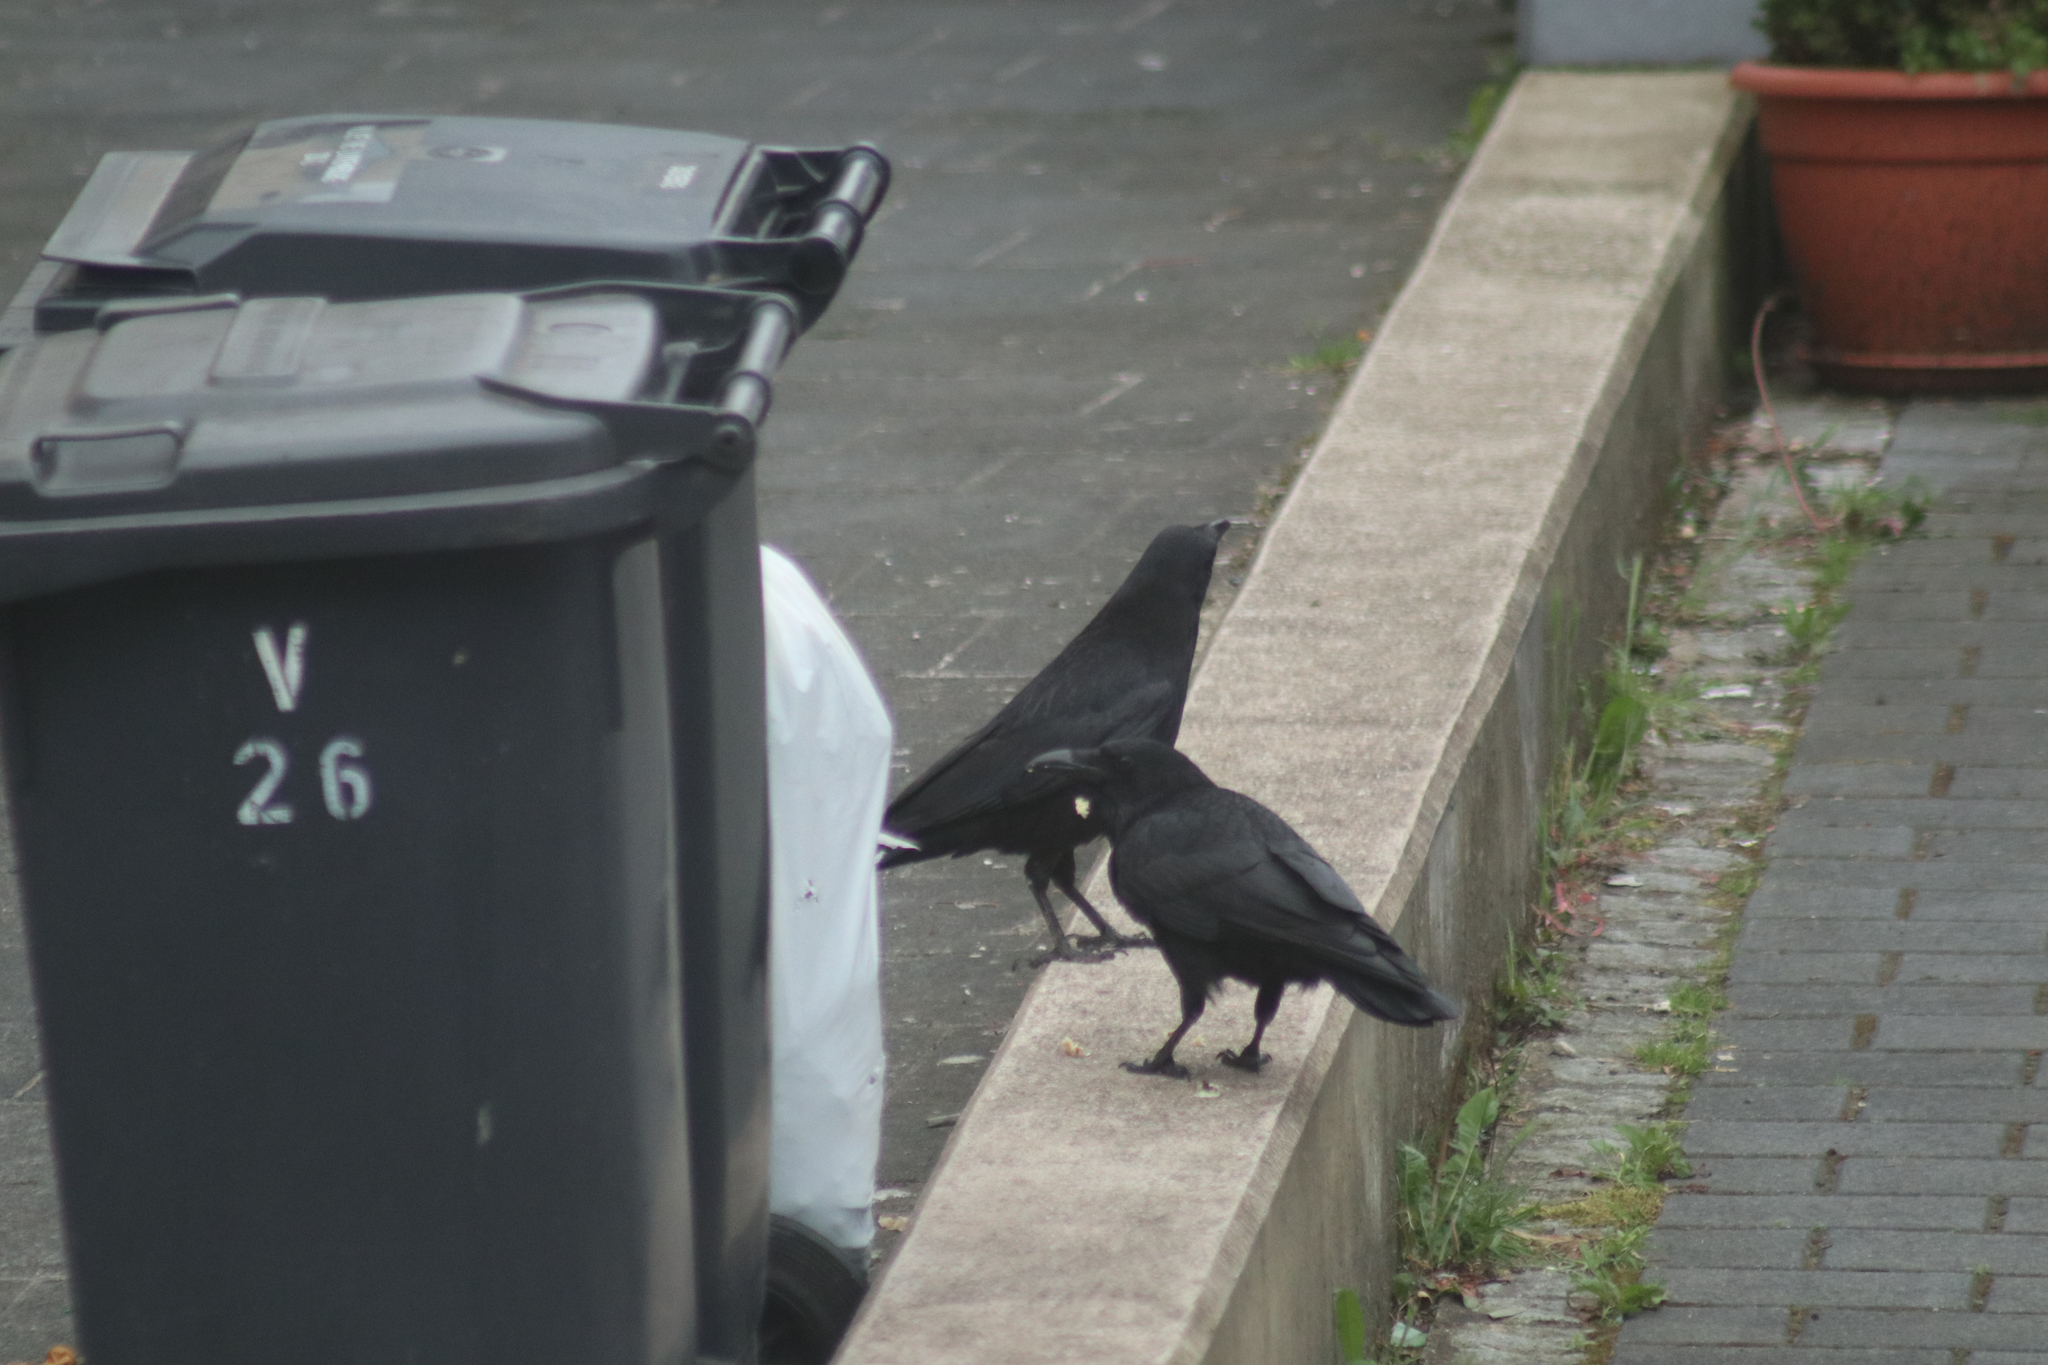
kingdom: Animalia
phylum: Chordata
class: Aves
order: Passeriformes
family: Corvidae
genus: Corvus
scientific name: Corvus corone
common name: Carrion crow
